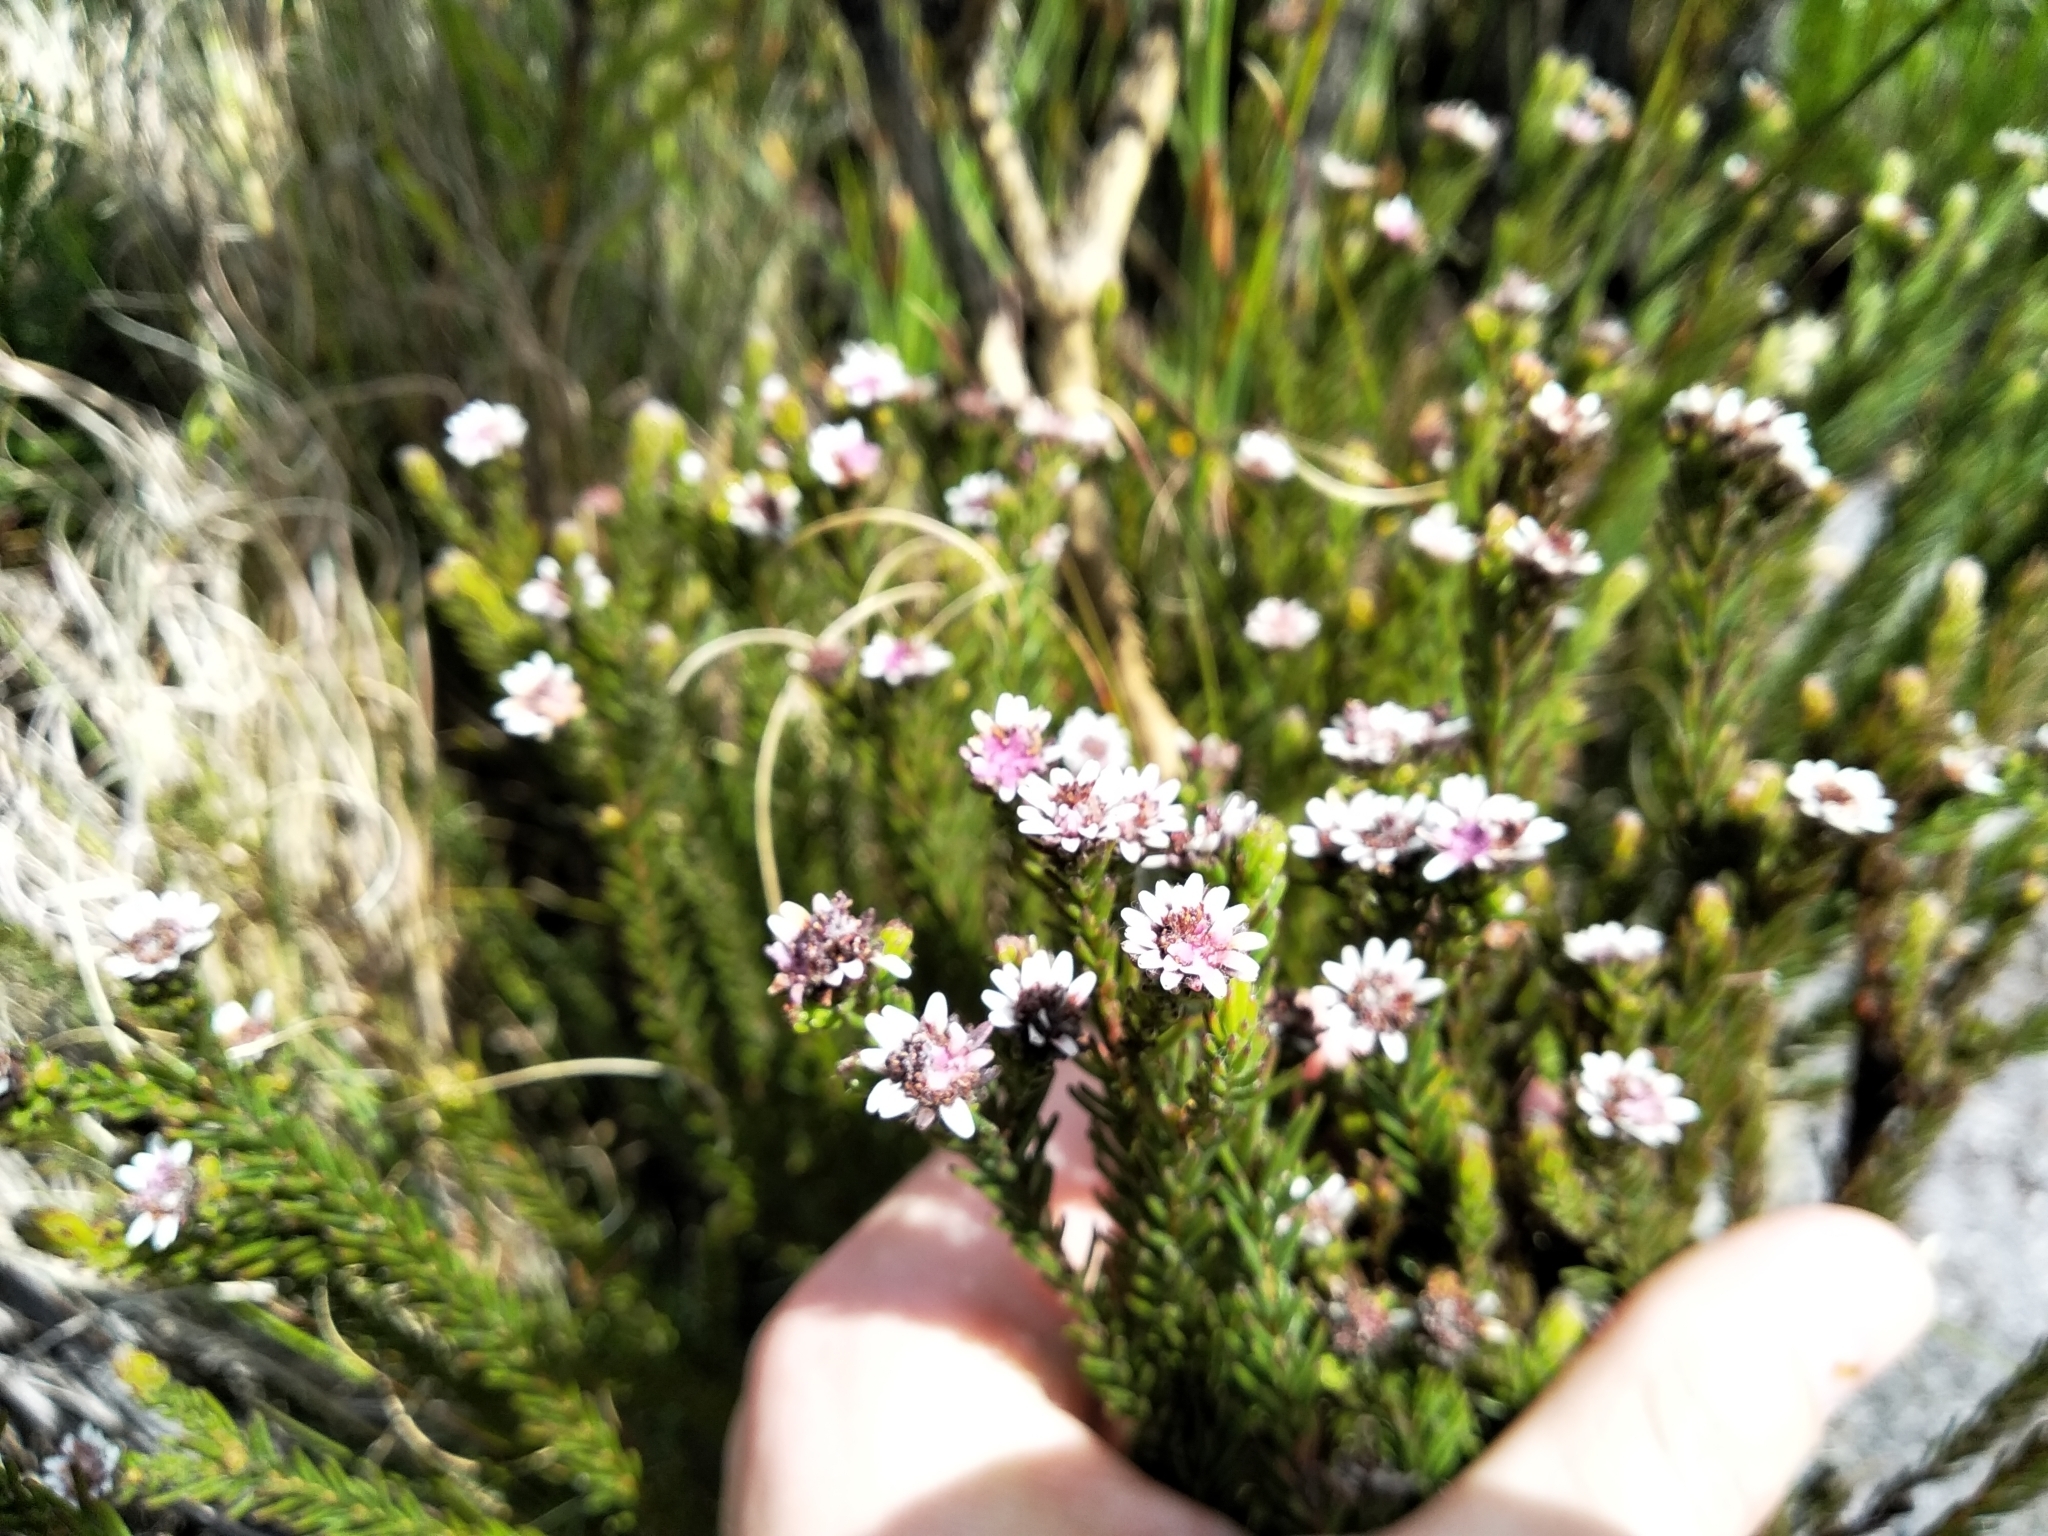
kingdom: Plantae
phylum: Tracheophyta
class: Magnoliopsida
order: Bruniales
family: Bruniaceae
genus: Staavia
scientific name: Staavia radiata
